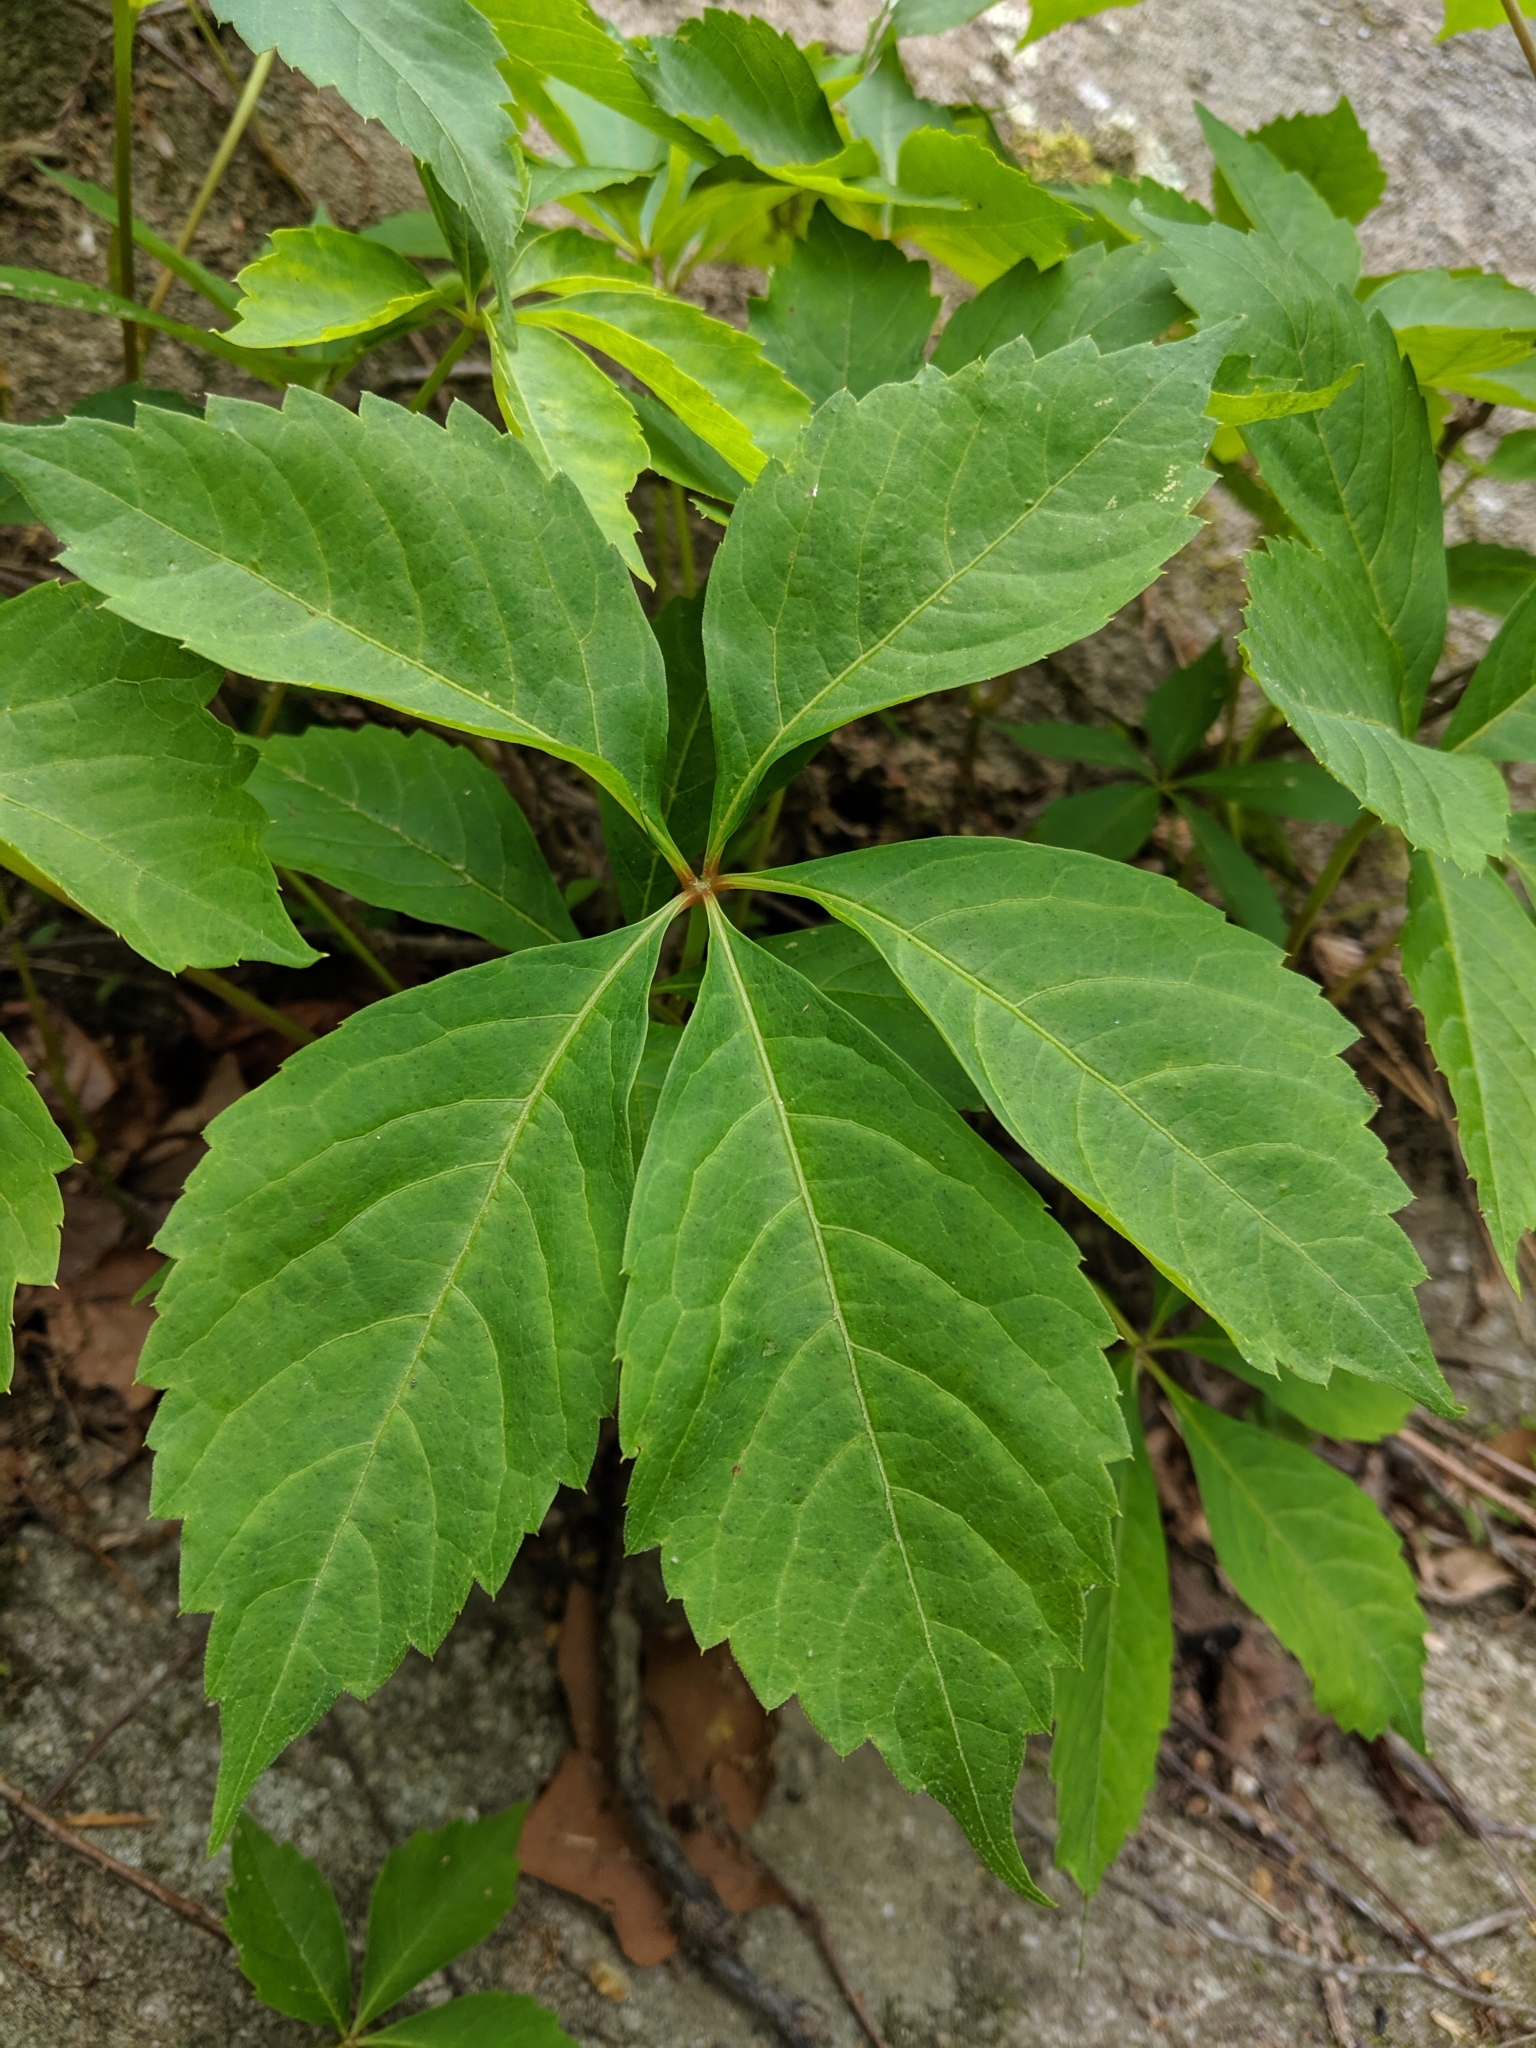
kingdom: Plantae
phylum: Tracheophyta
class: Magnoliopsida
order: Vitales
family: Vitaceae
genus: Parthenocissus
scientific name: Parthenocissus quinquefolia
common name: Virginia-creeper
